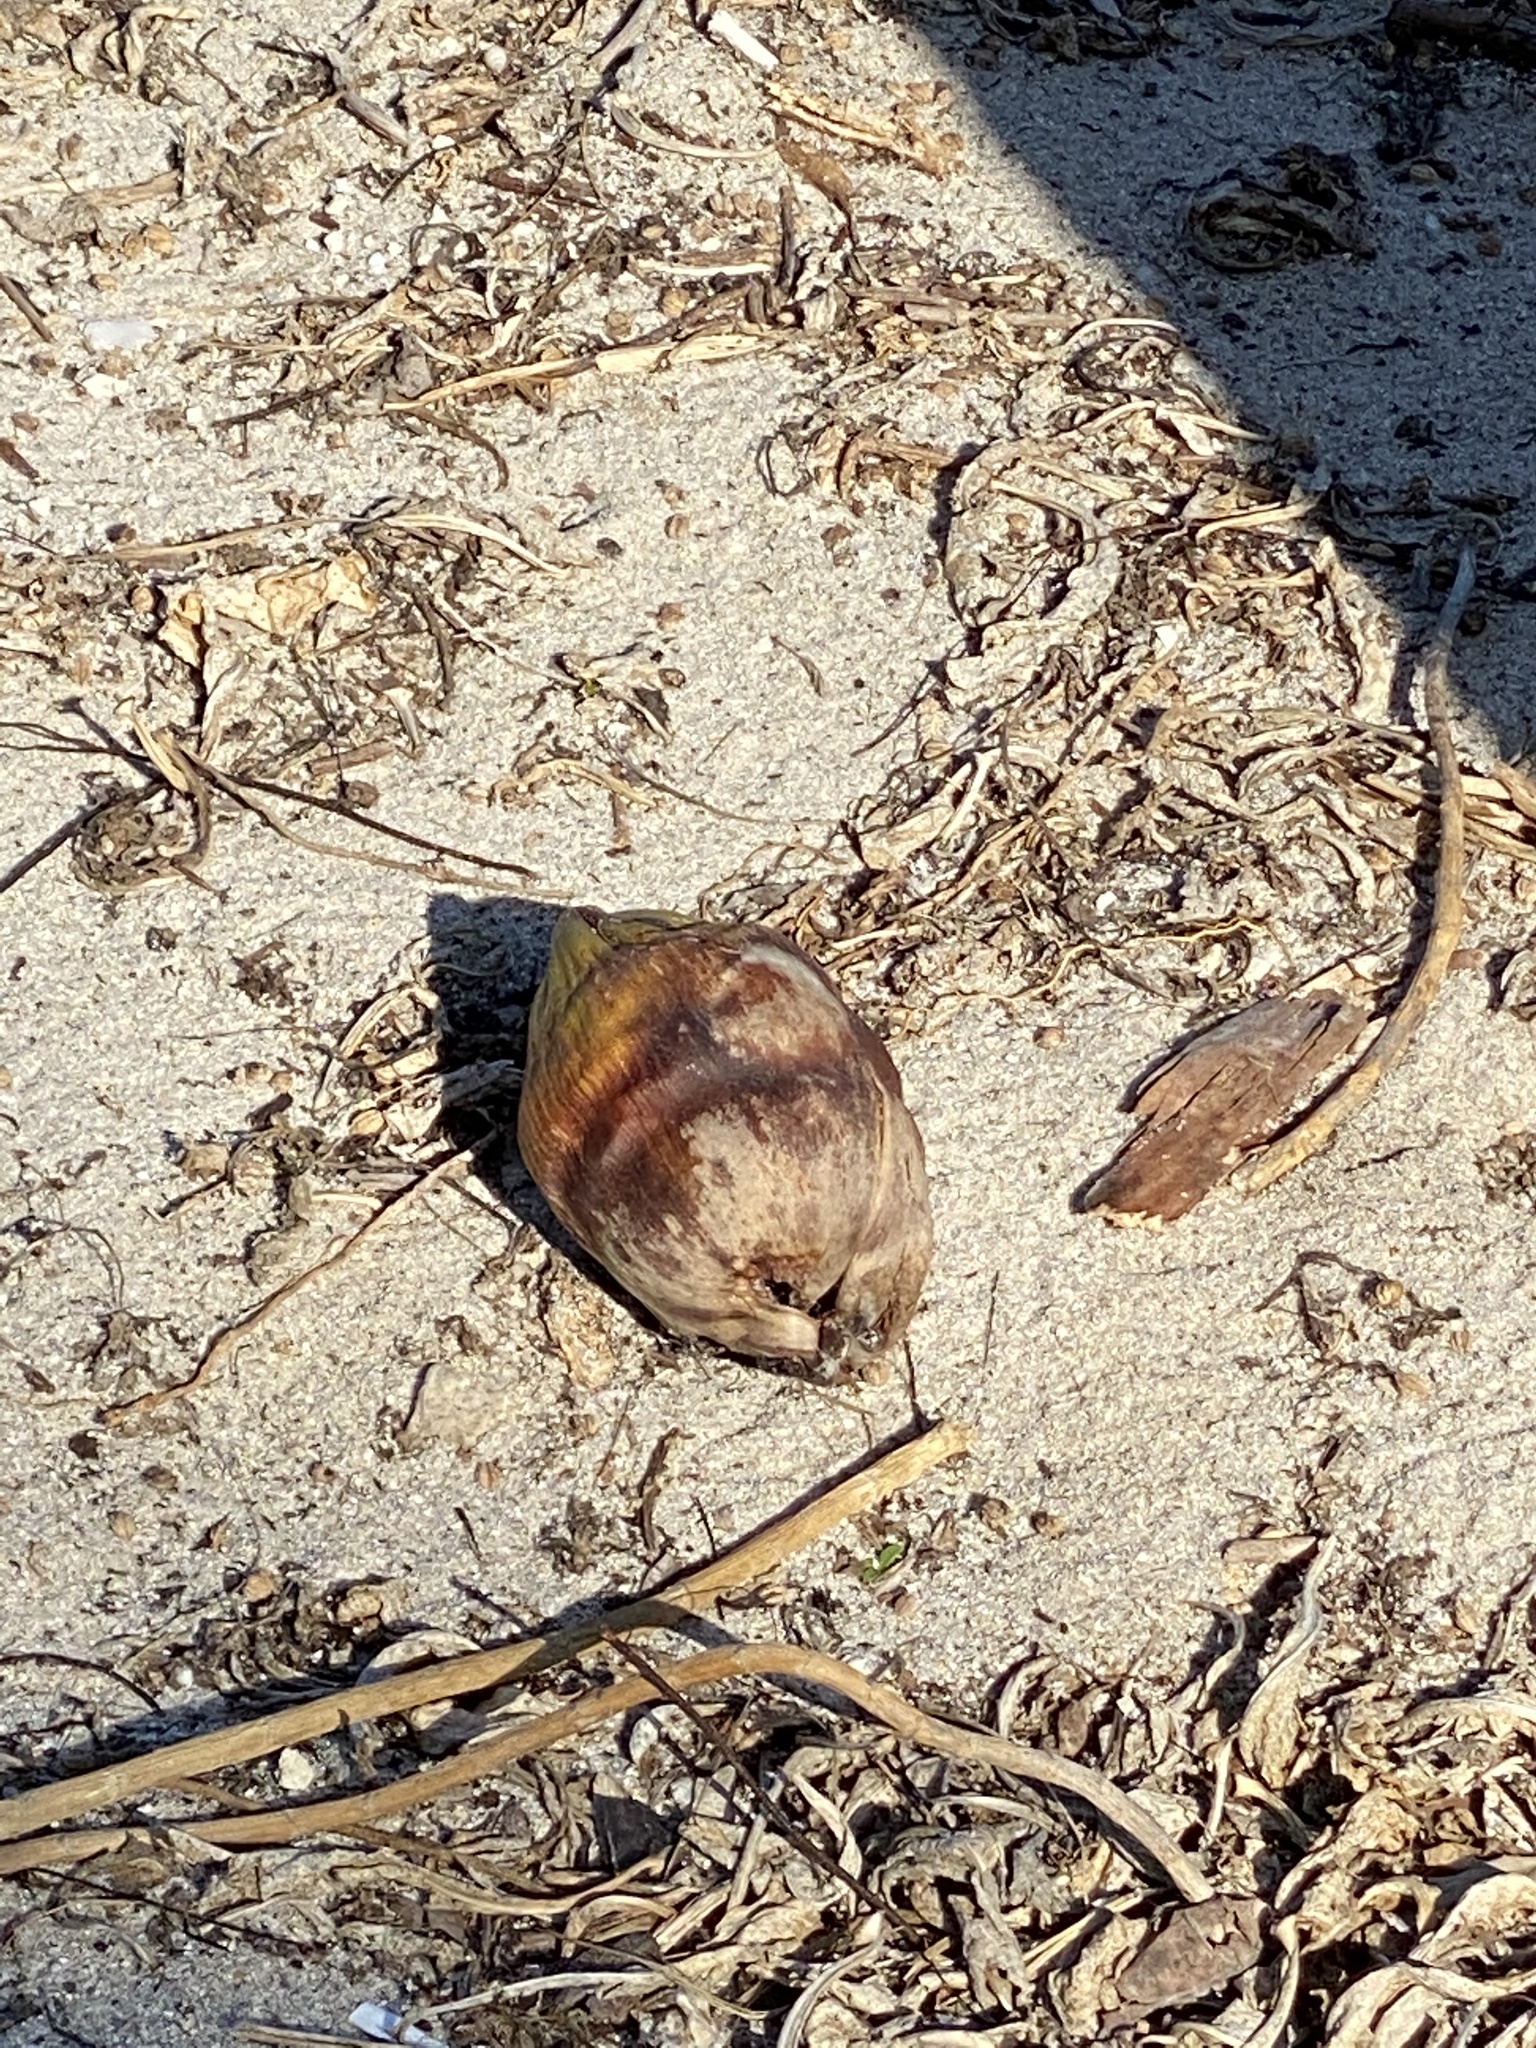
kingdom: Plantae
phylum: Tracheophyta
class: Liliopsida
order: Arecales
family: Arecaceae
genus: Cocos
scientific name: Cocos nucifera
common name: Coconut palm
